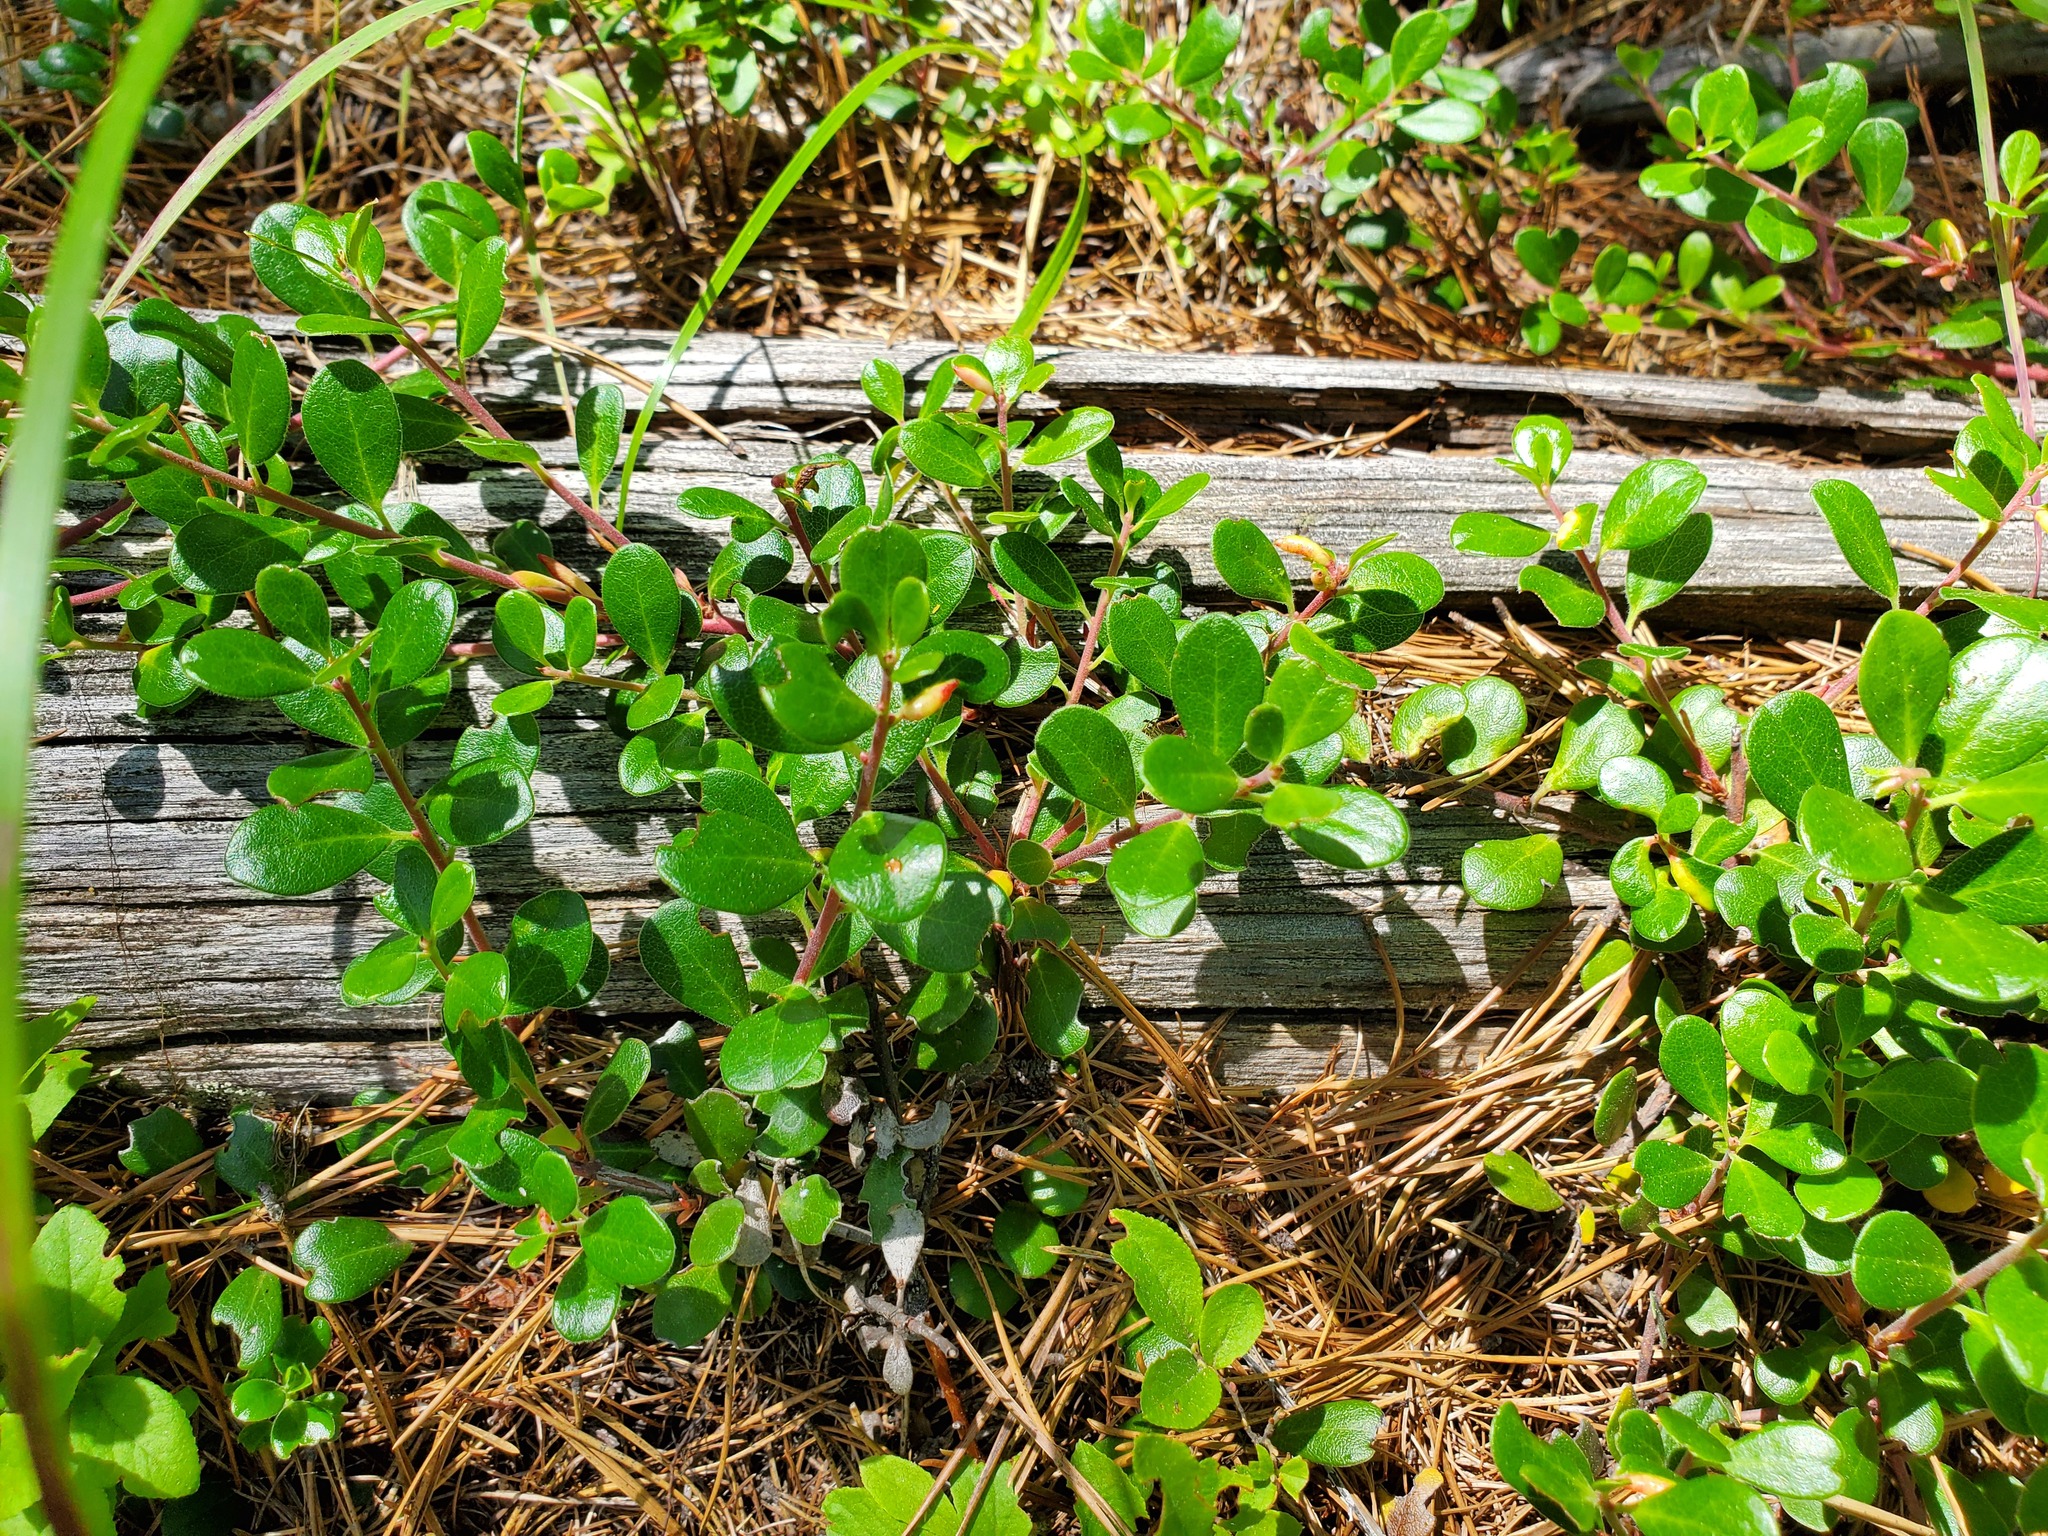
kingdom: Plantae
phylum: Tracheophyta
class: Magnoliopsida
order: Ericales
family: Ericaceae
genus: Arctostaphylos
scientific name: Arctostaphylos uva-ursi
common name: Bearberry
